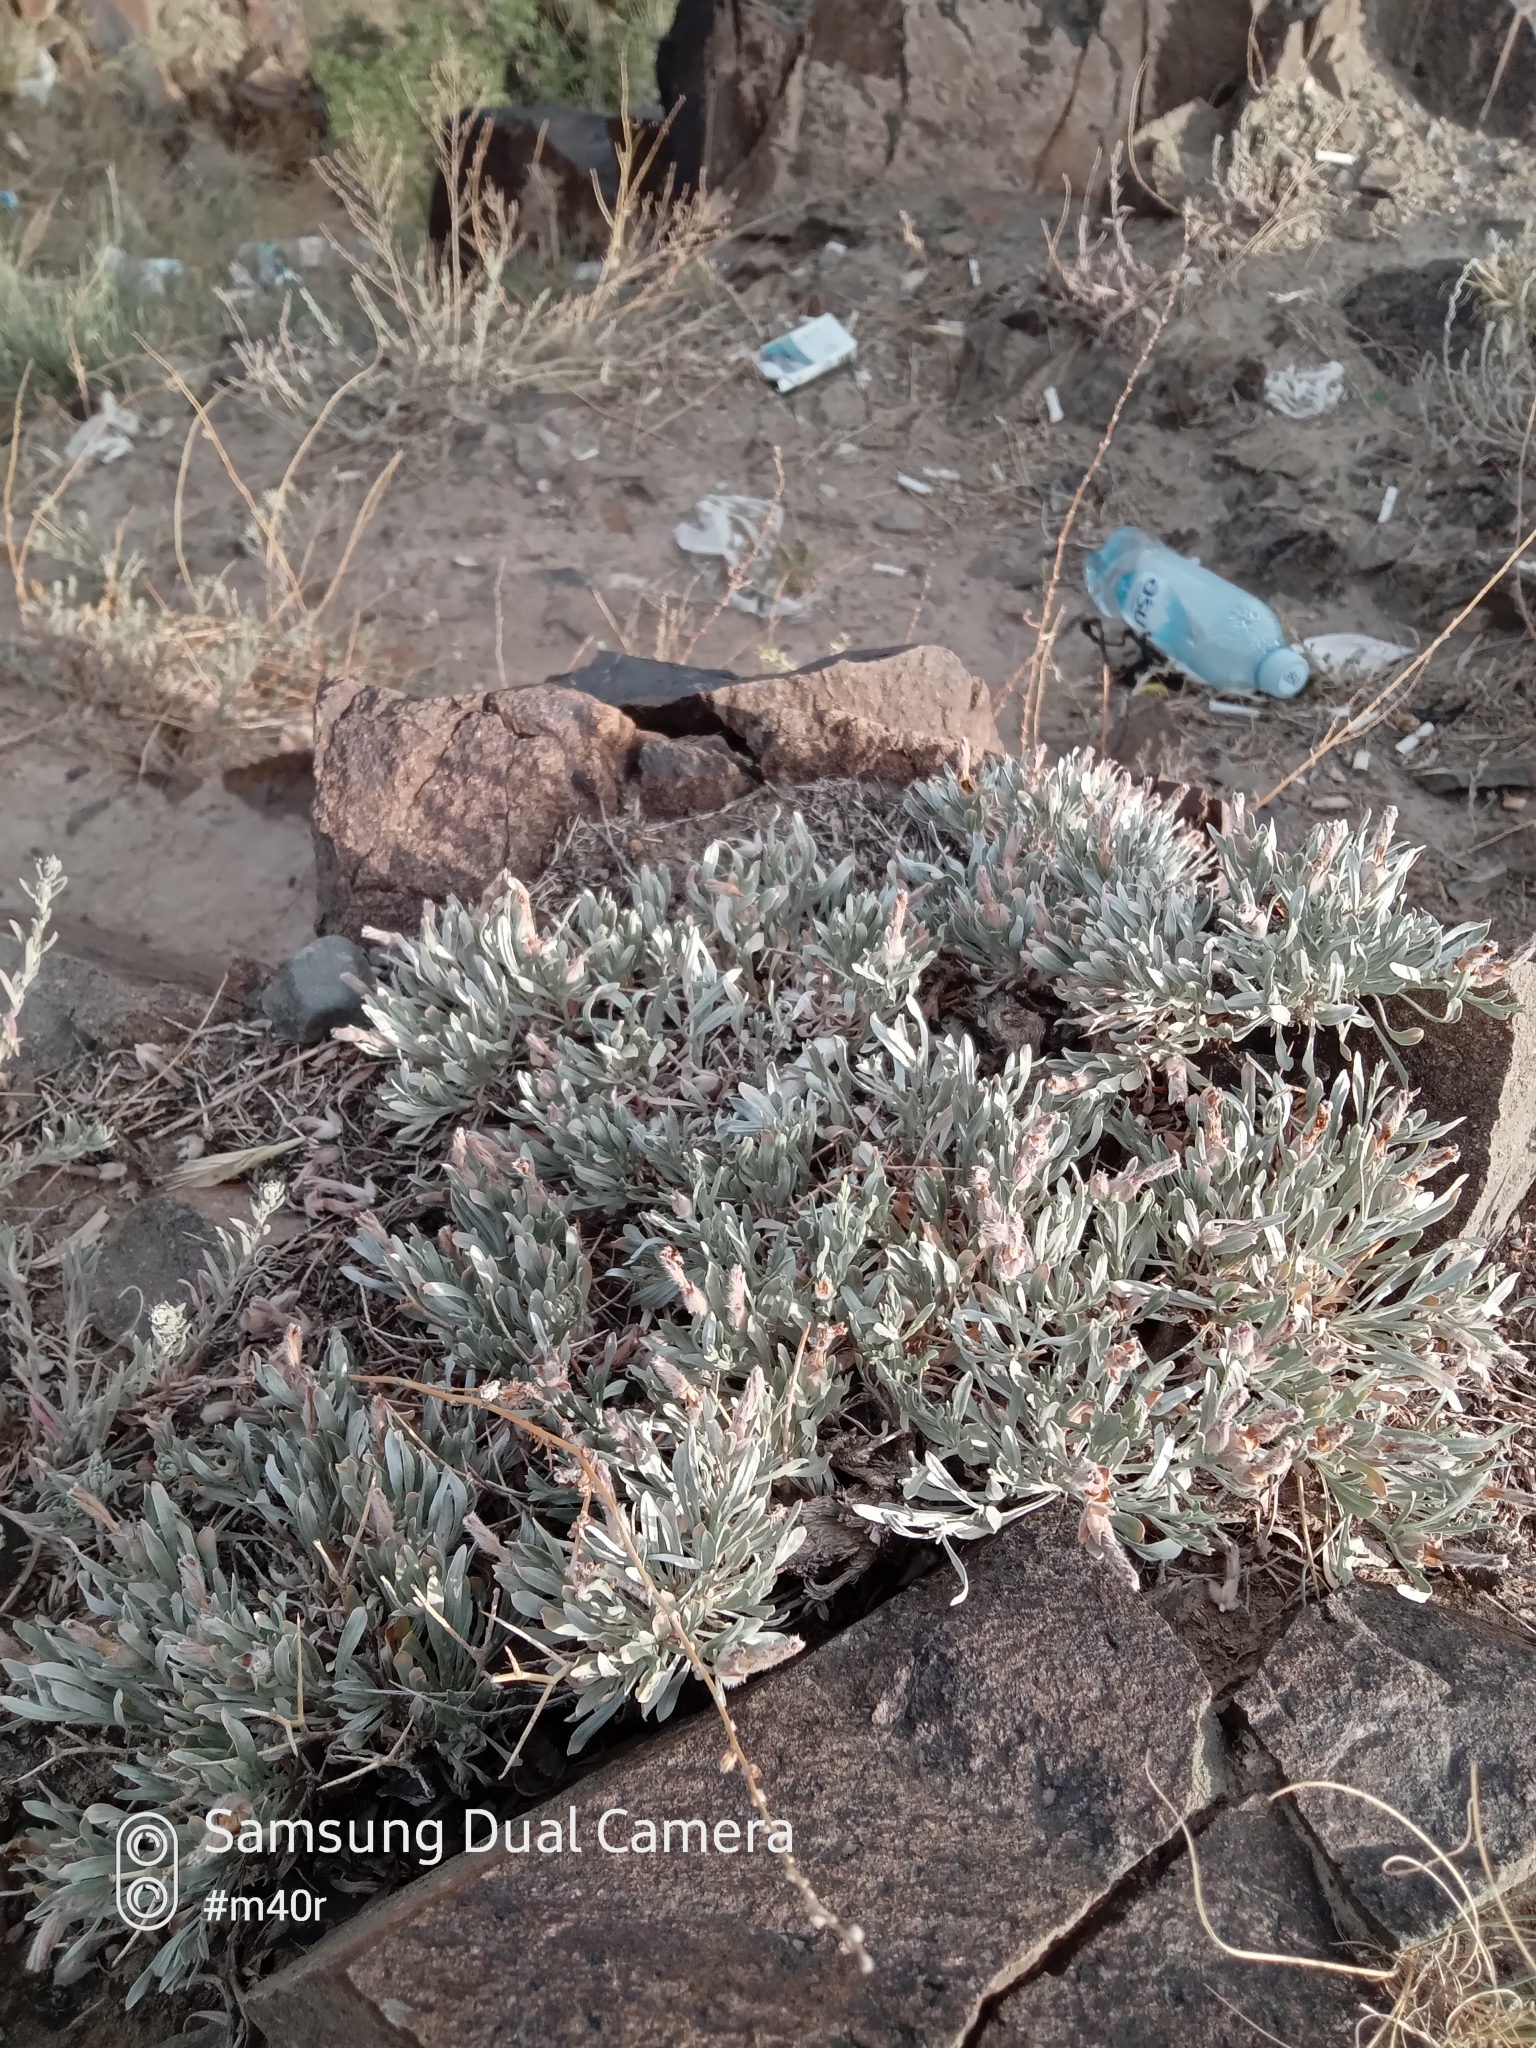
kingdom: Plantae
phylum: Tracheophyta
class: Magnoliopsida
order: Solanales
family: Convolvulaceae
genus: Convolvulus
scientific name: Convolvulus tragacanthoides
